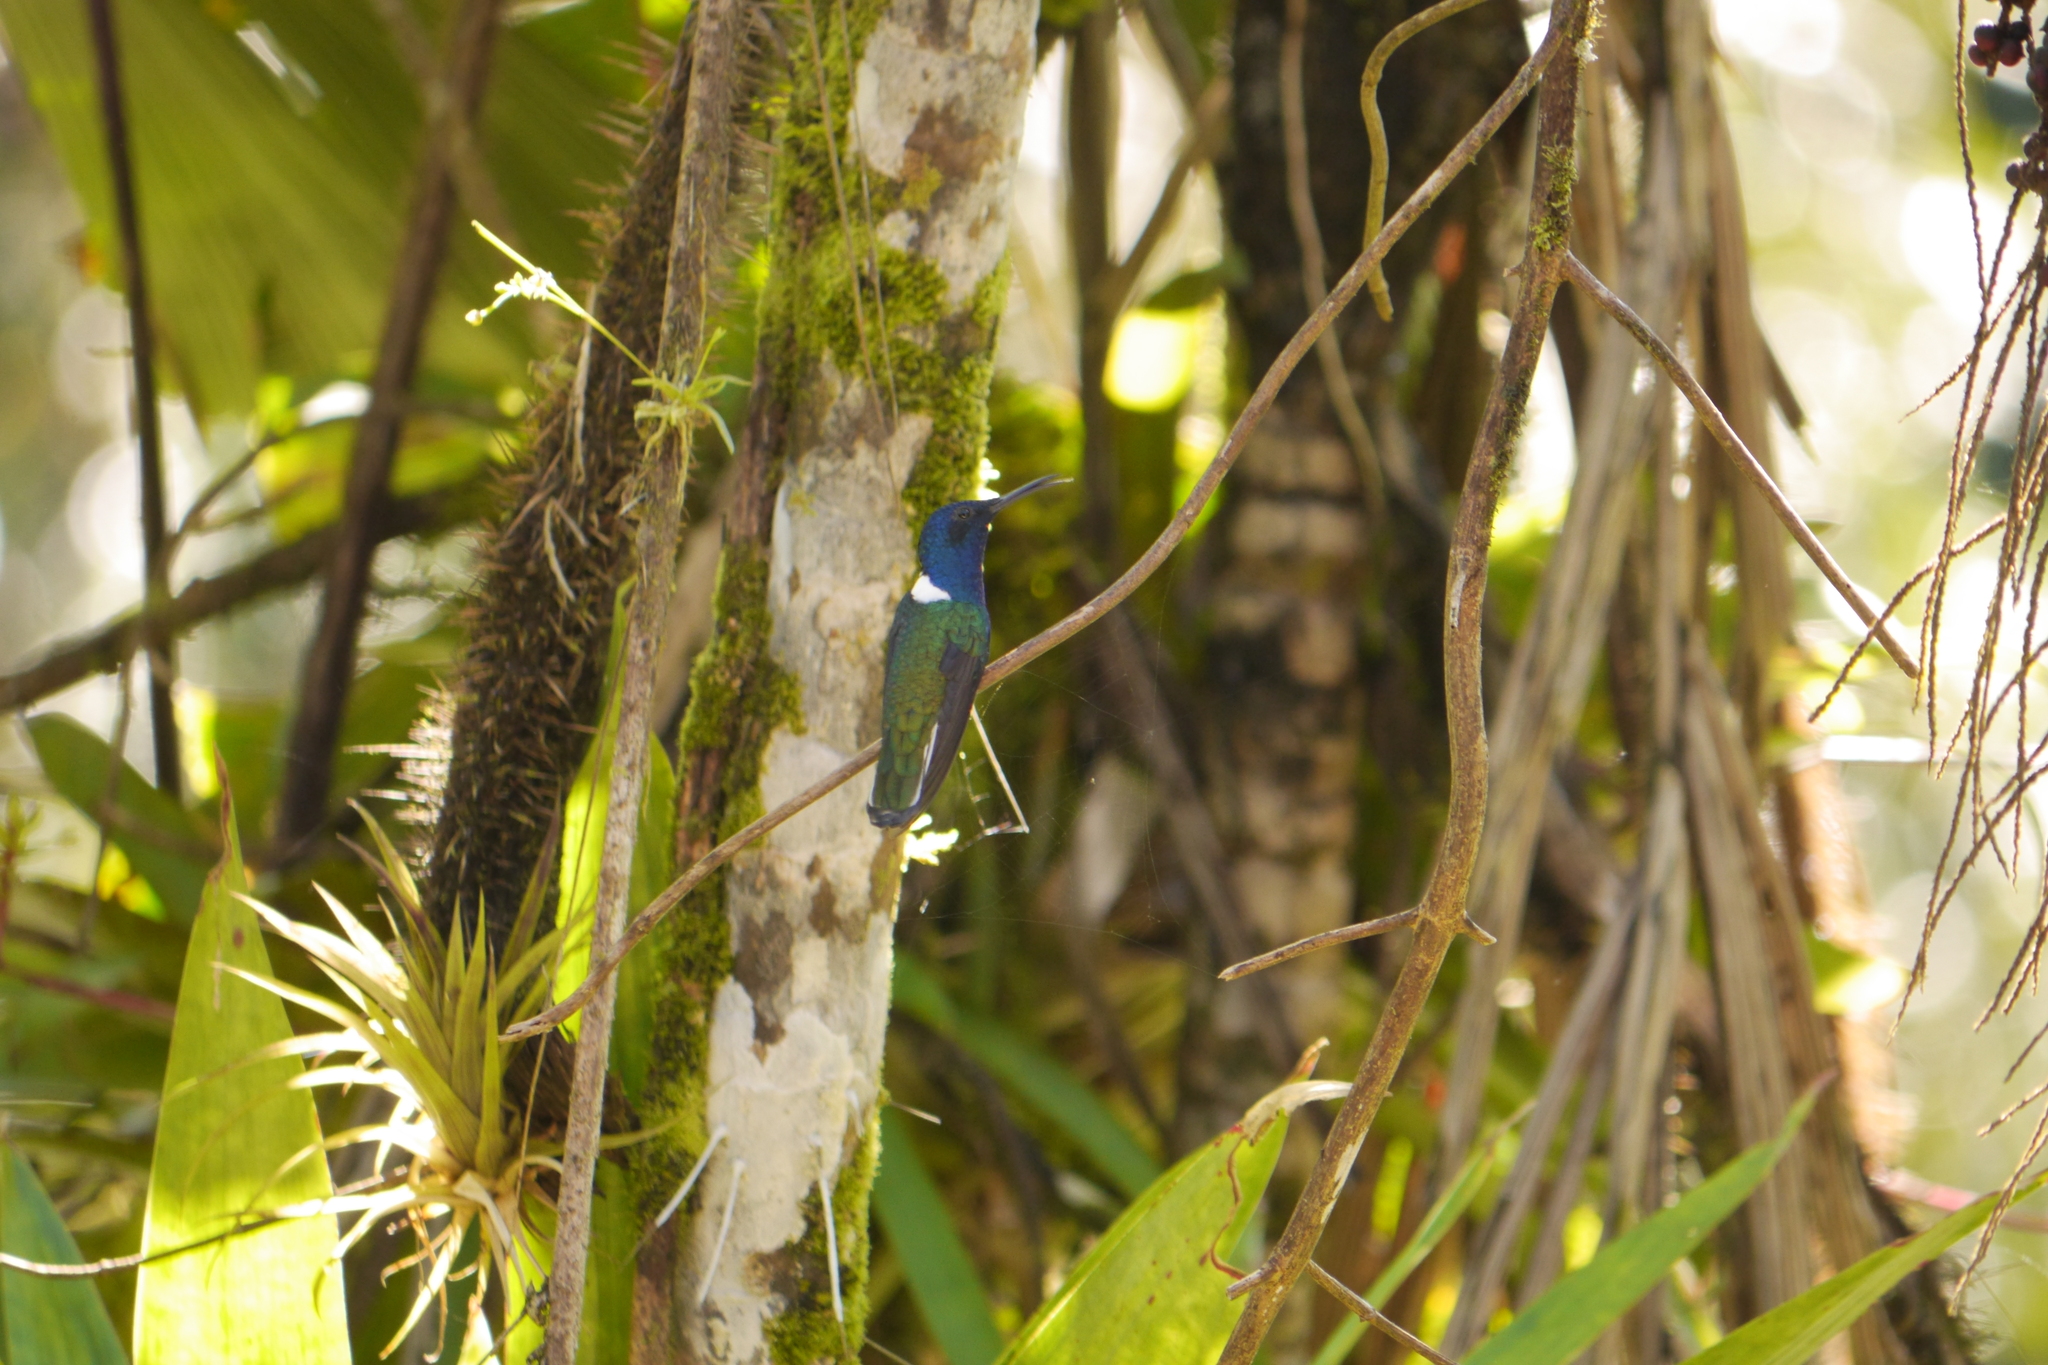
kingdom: Animalia
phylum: Chordata
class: Aves
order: Apodiformes
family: Trochilidae
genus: Florisuga
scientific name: Florisuga mellivora
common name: White-necked jacobin
